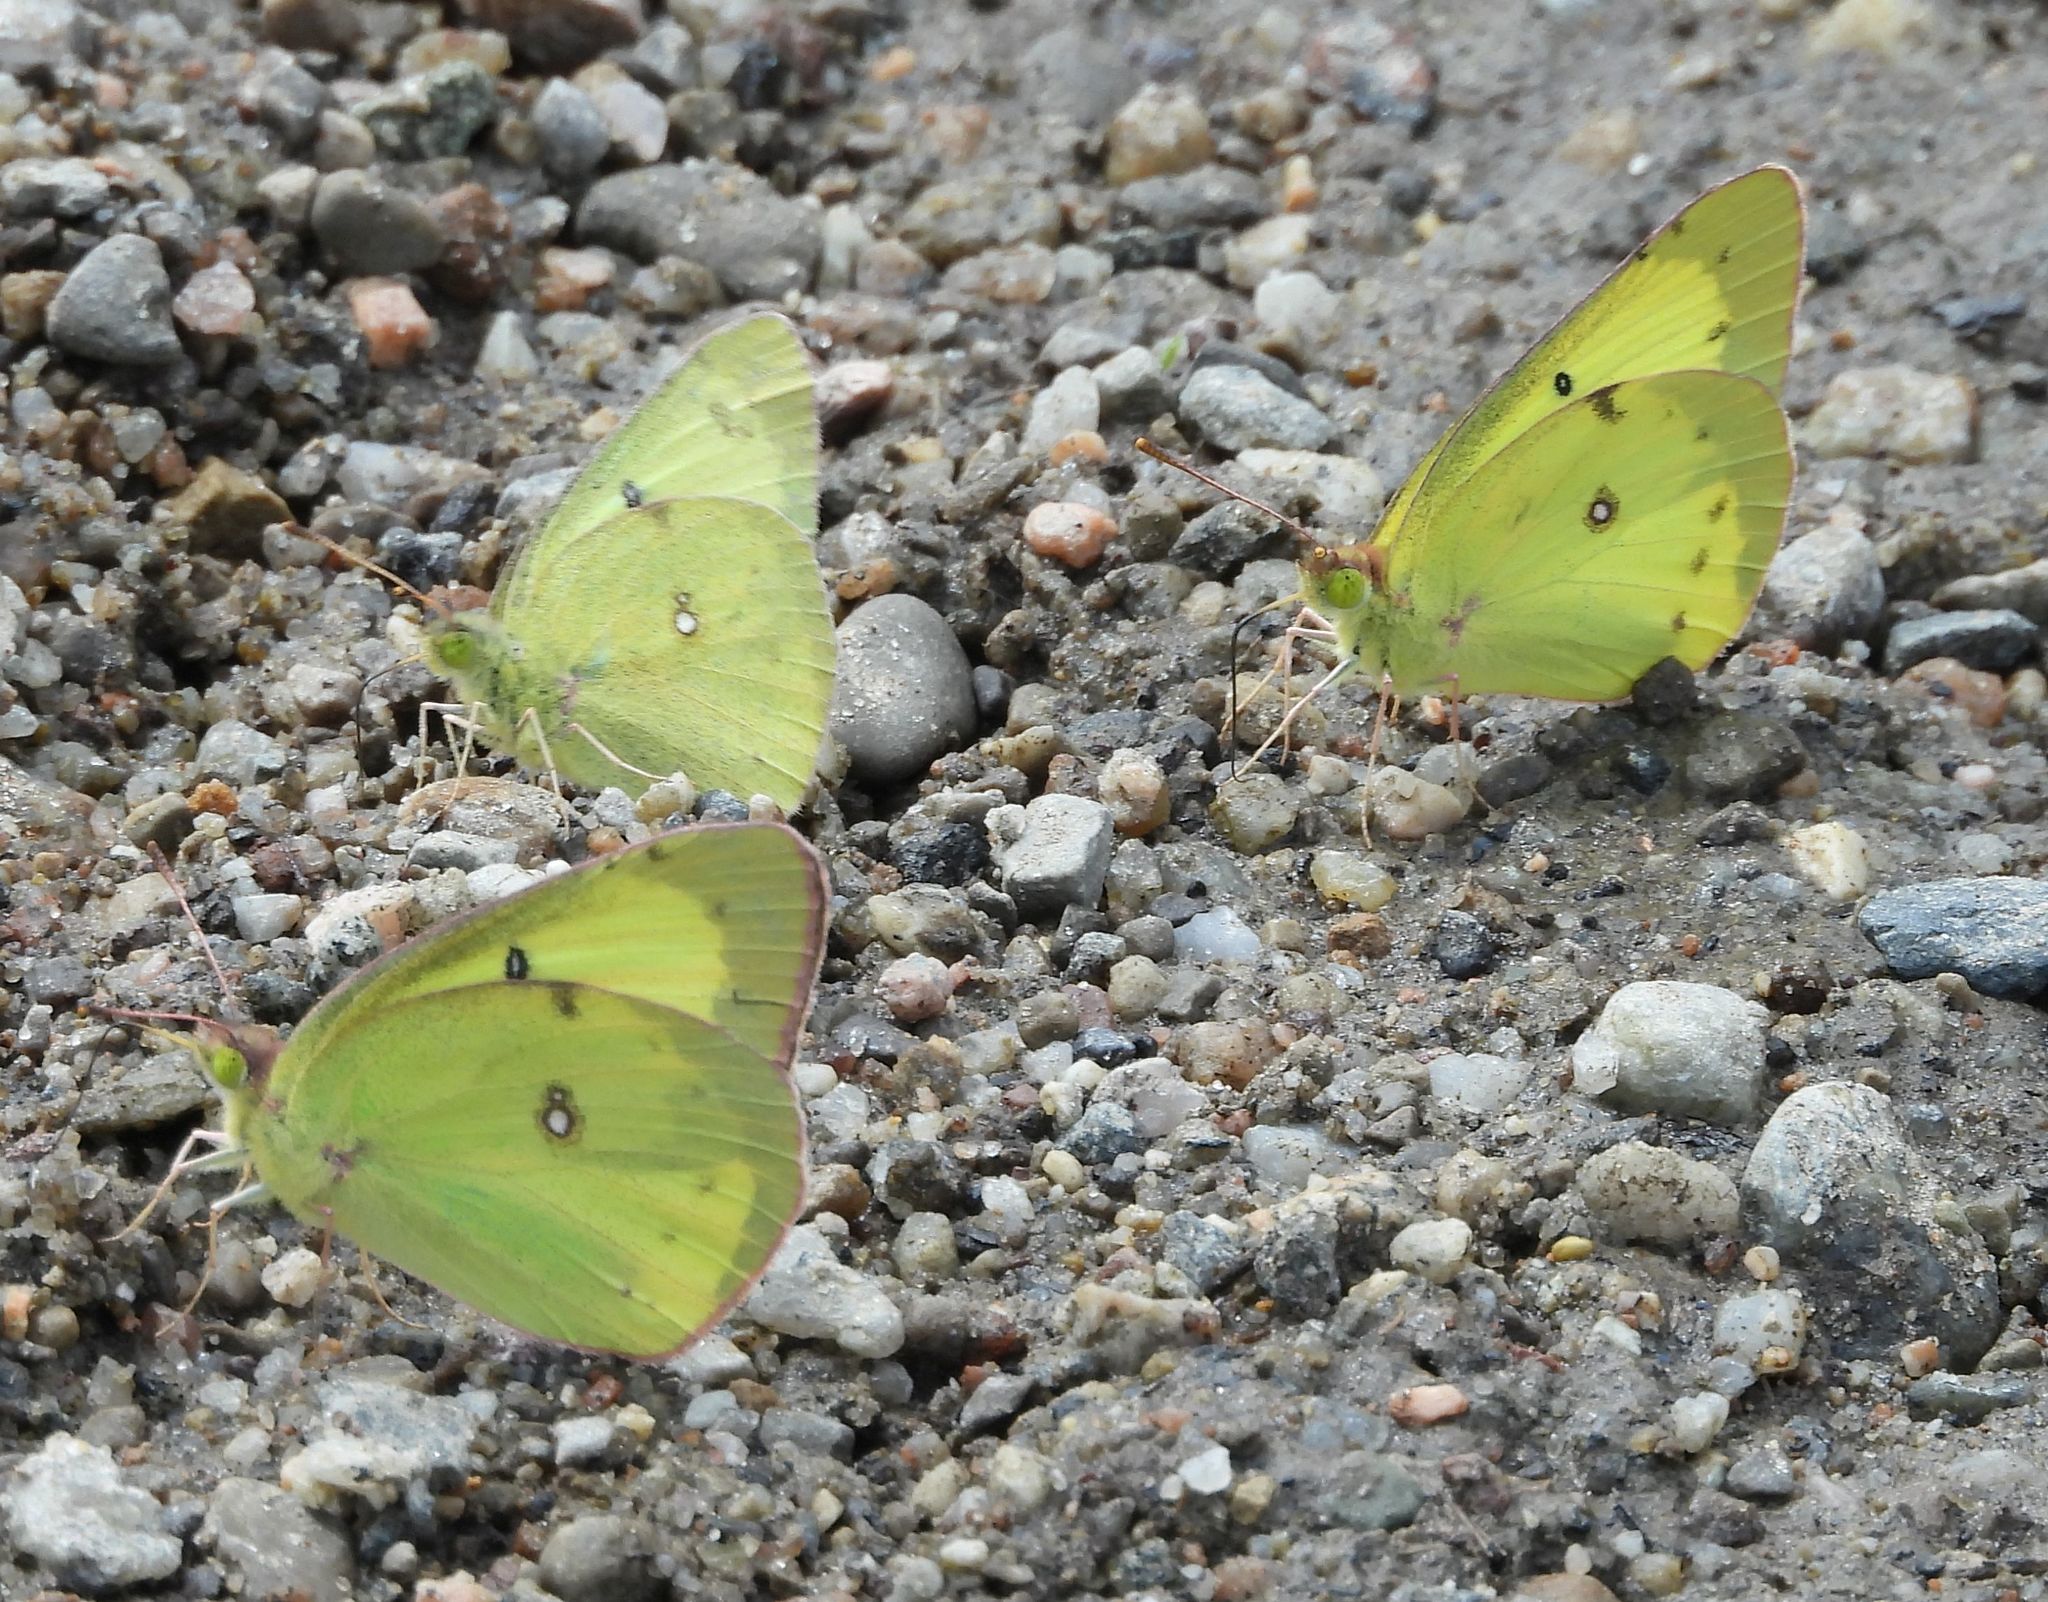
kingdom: Animalia
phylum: Arthropoda
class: Insecta
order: Lepidoptera
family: Pieridae
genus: Colias
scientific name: Colias philodice
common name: Clouded sulphur
